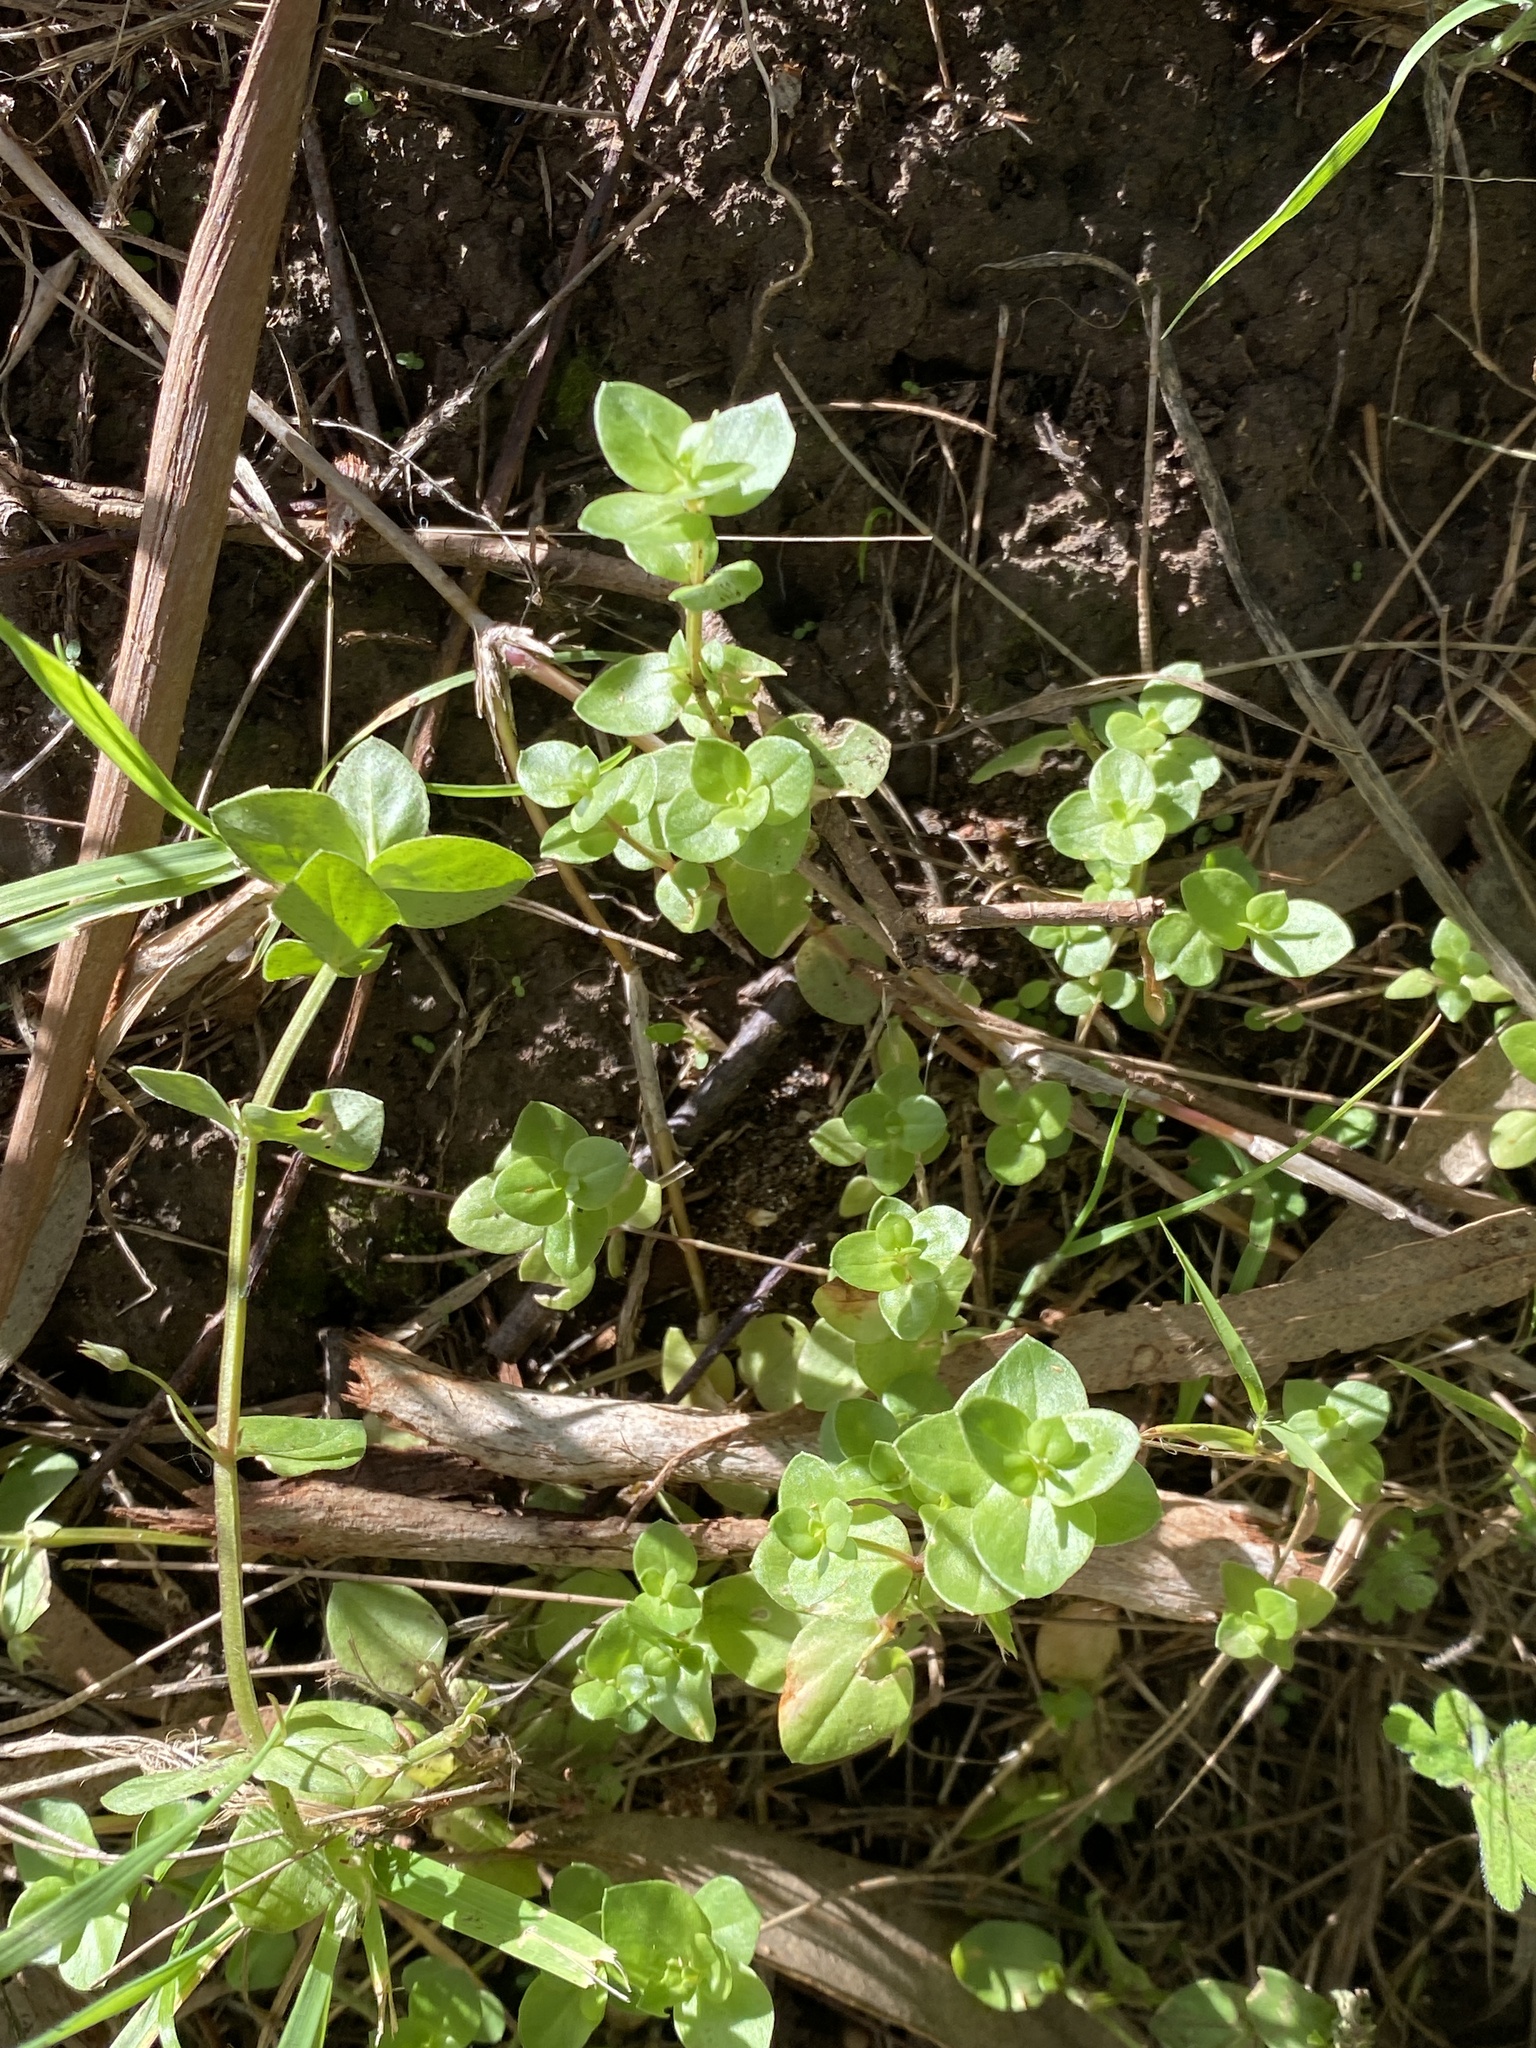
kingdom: Plantae
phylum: Tracheophyta
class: Magnoliopsida
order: Ericales
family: Primulaceae
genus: Lysimachia
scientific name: Lysimachia arvensis
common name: Scarlet pimpernel
